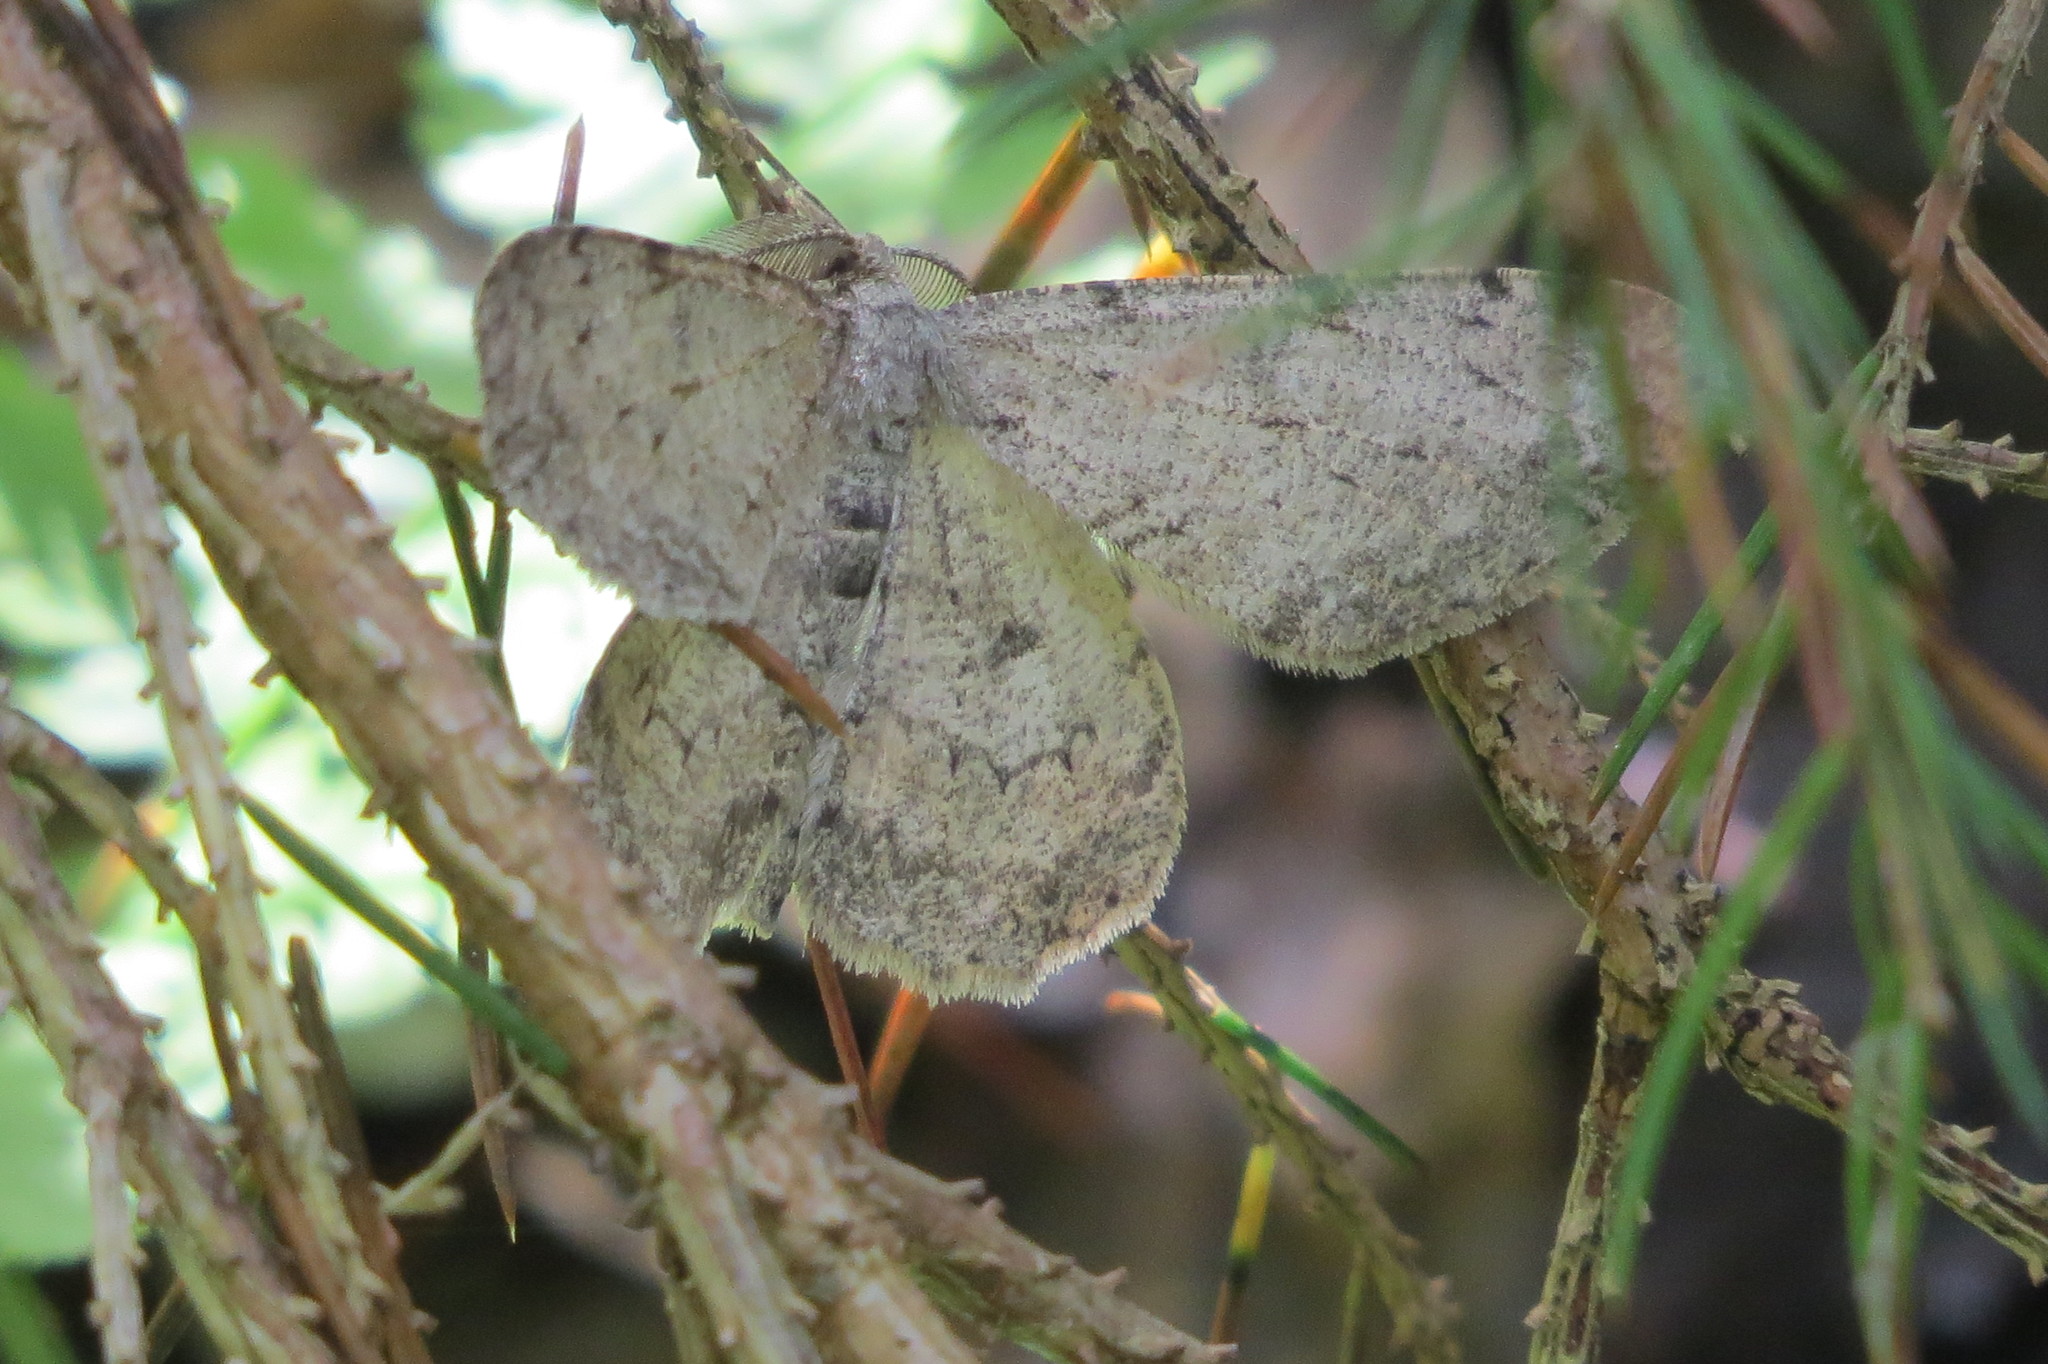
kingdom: Animalia
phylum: Arthropoda
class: Insecta
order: Lepidoptera
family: Geometridae
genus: Hypomecis
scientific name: Hypomecis punctinalis
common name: Pale oak beauty
